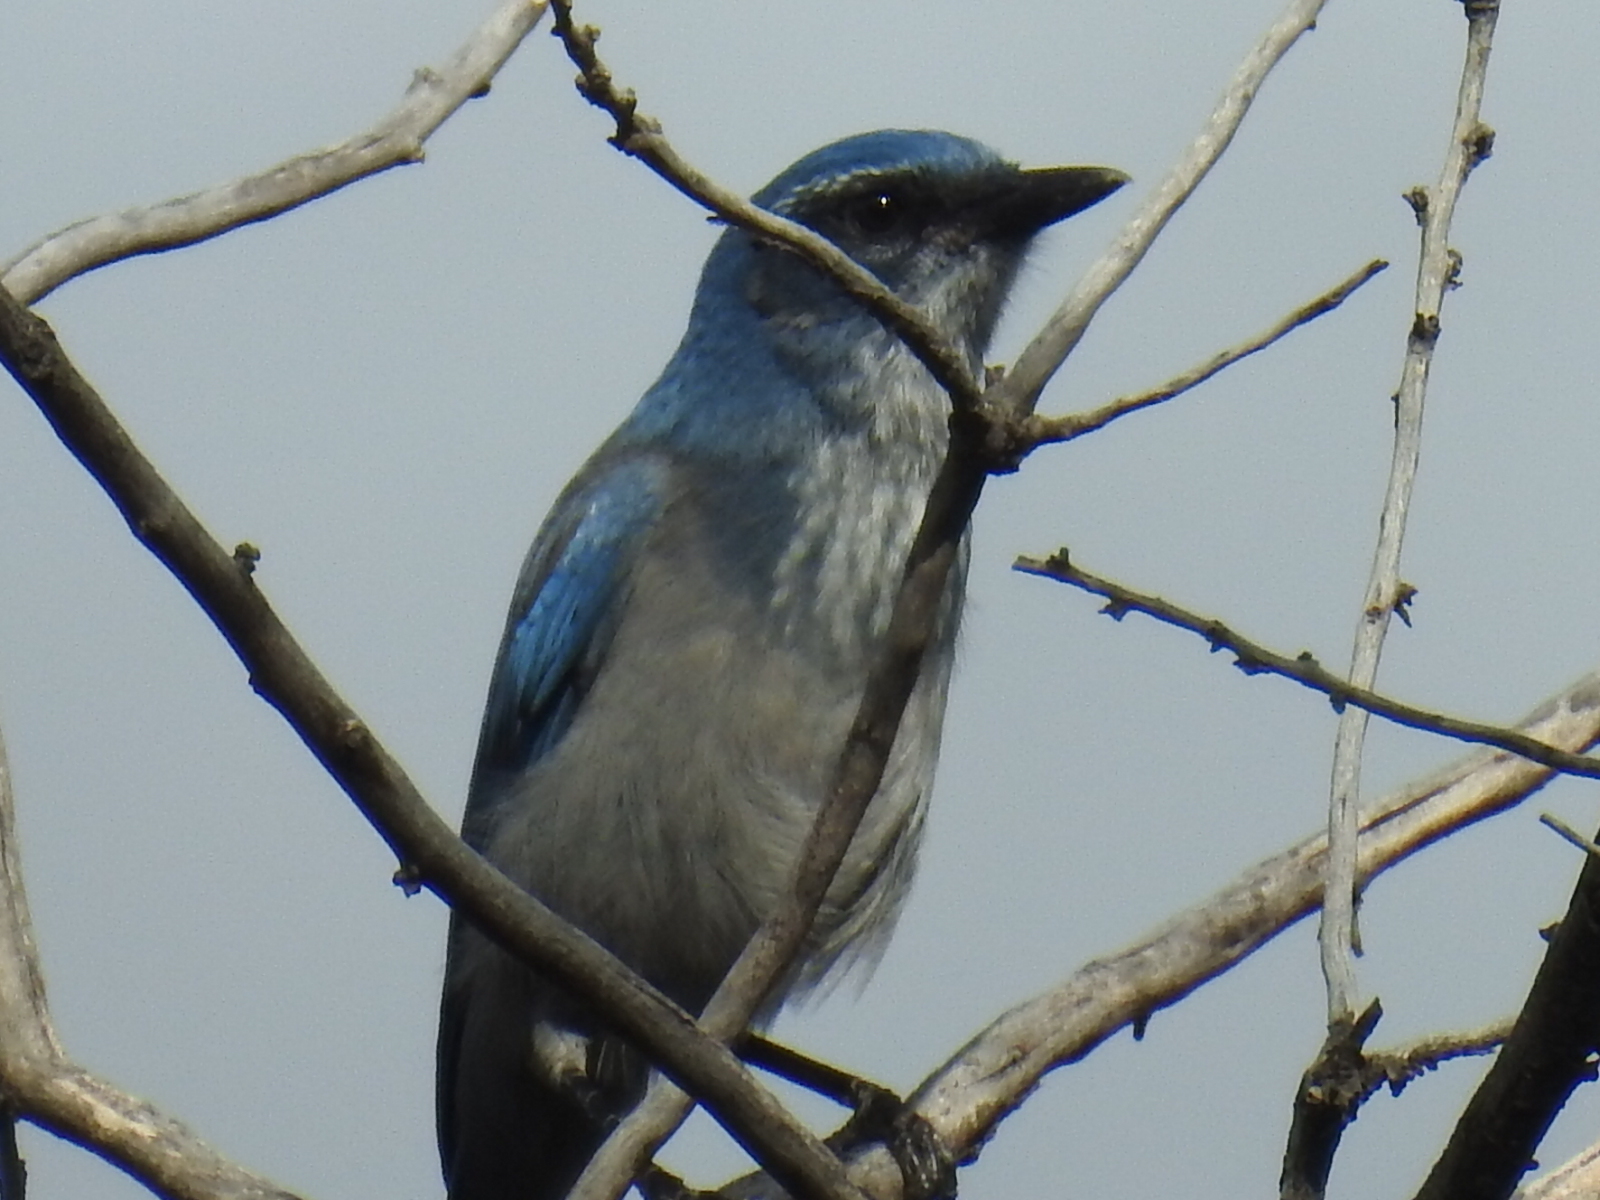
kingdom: Animalia
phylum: Chordata
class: Aves
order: Passeriformes
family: Corvidae
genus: Aphelocoma
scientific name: Aphelocoma woodhouseii
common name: Woodhouse's scrub-jay
